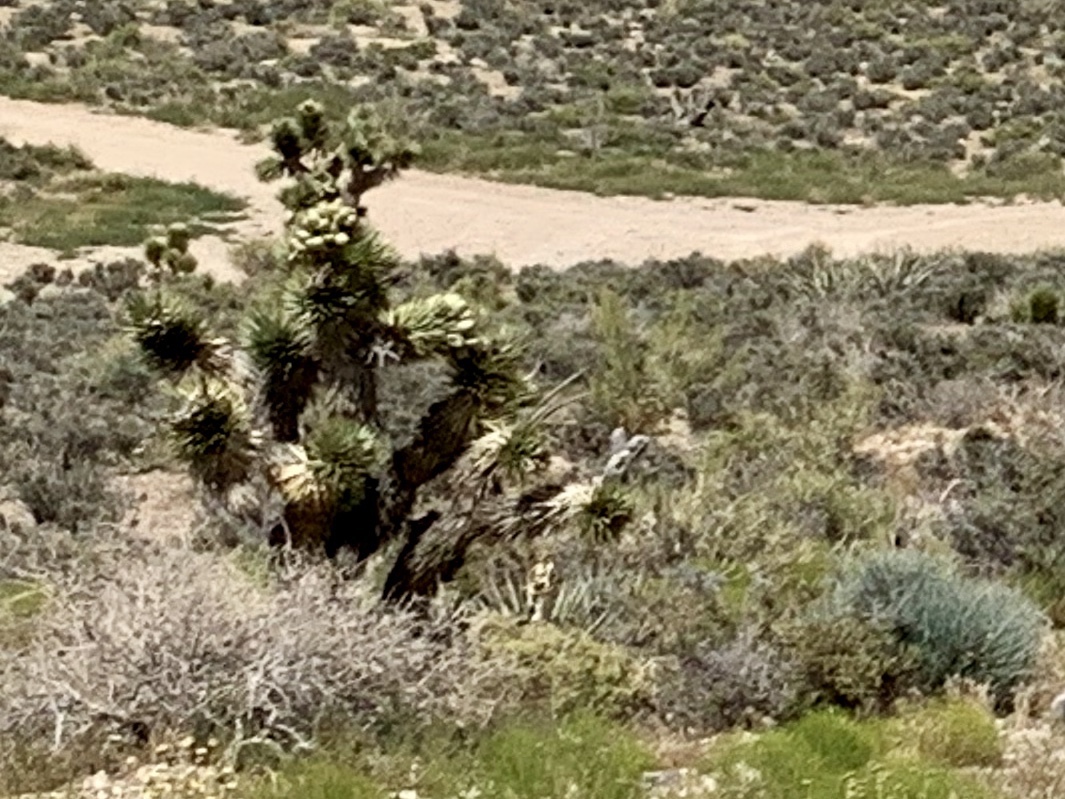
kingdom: Plantae
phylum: Tracheophyta
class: Liliopsida
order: Asparagales
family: Asparagaceae
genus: Yucca
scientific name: Yucca brevifolia
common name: Joshua tree
